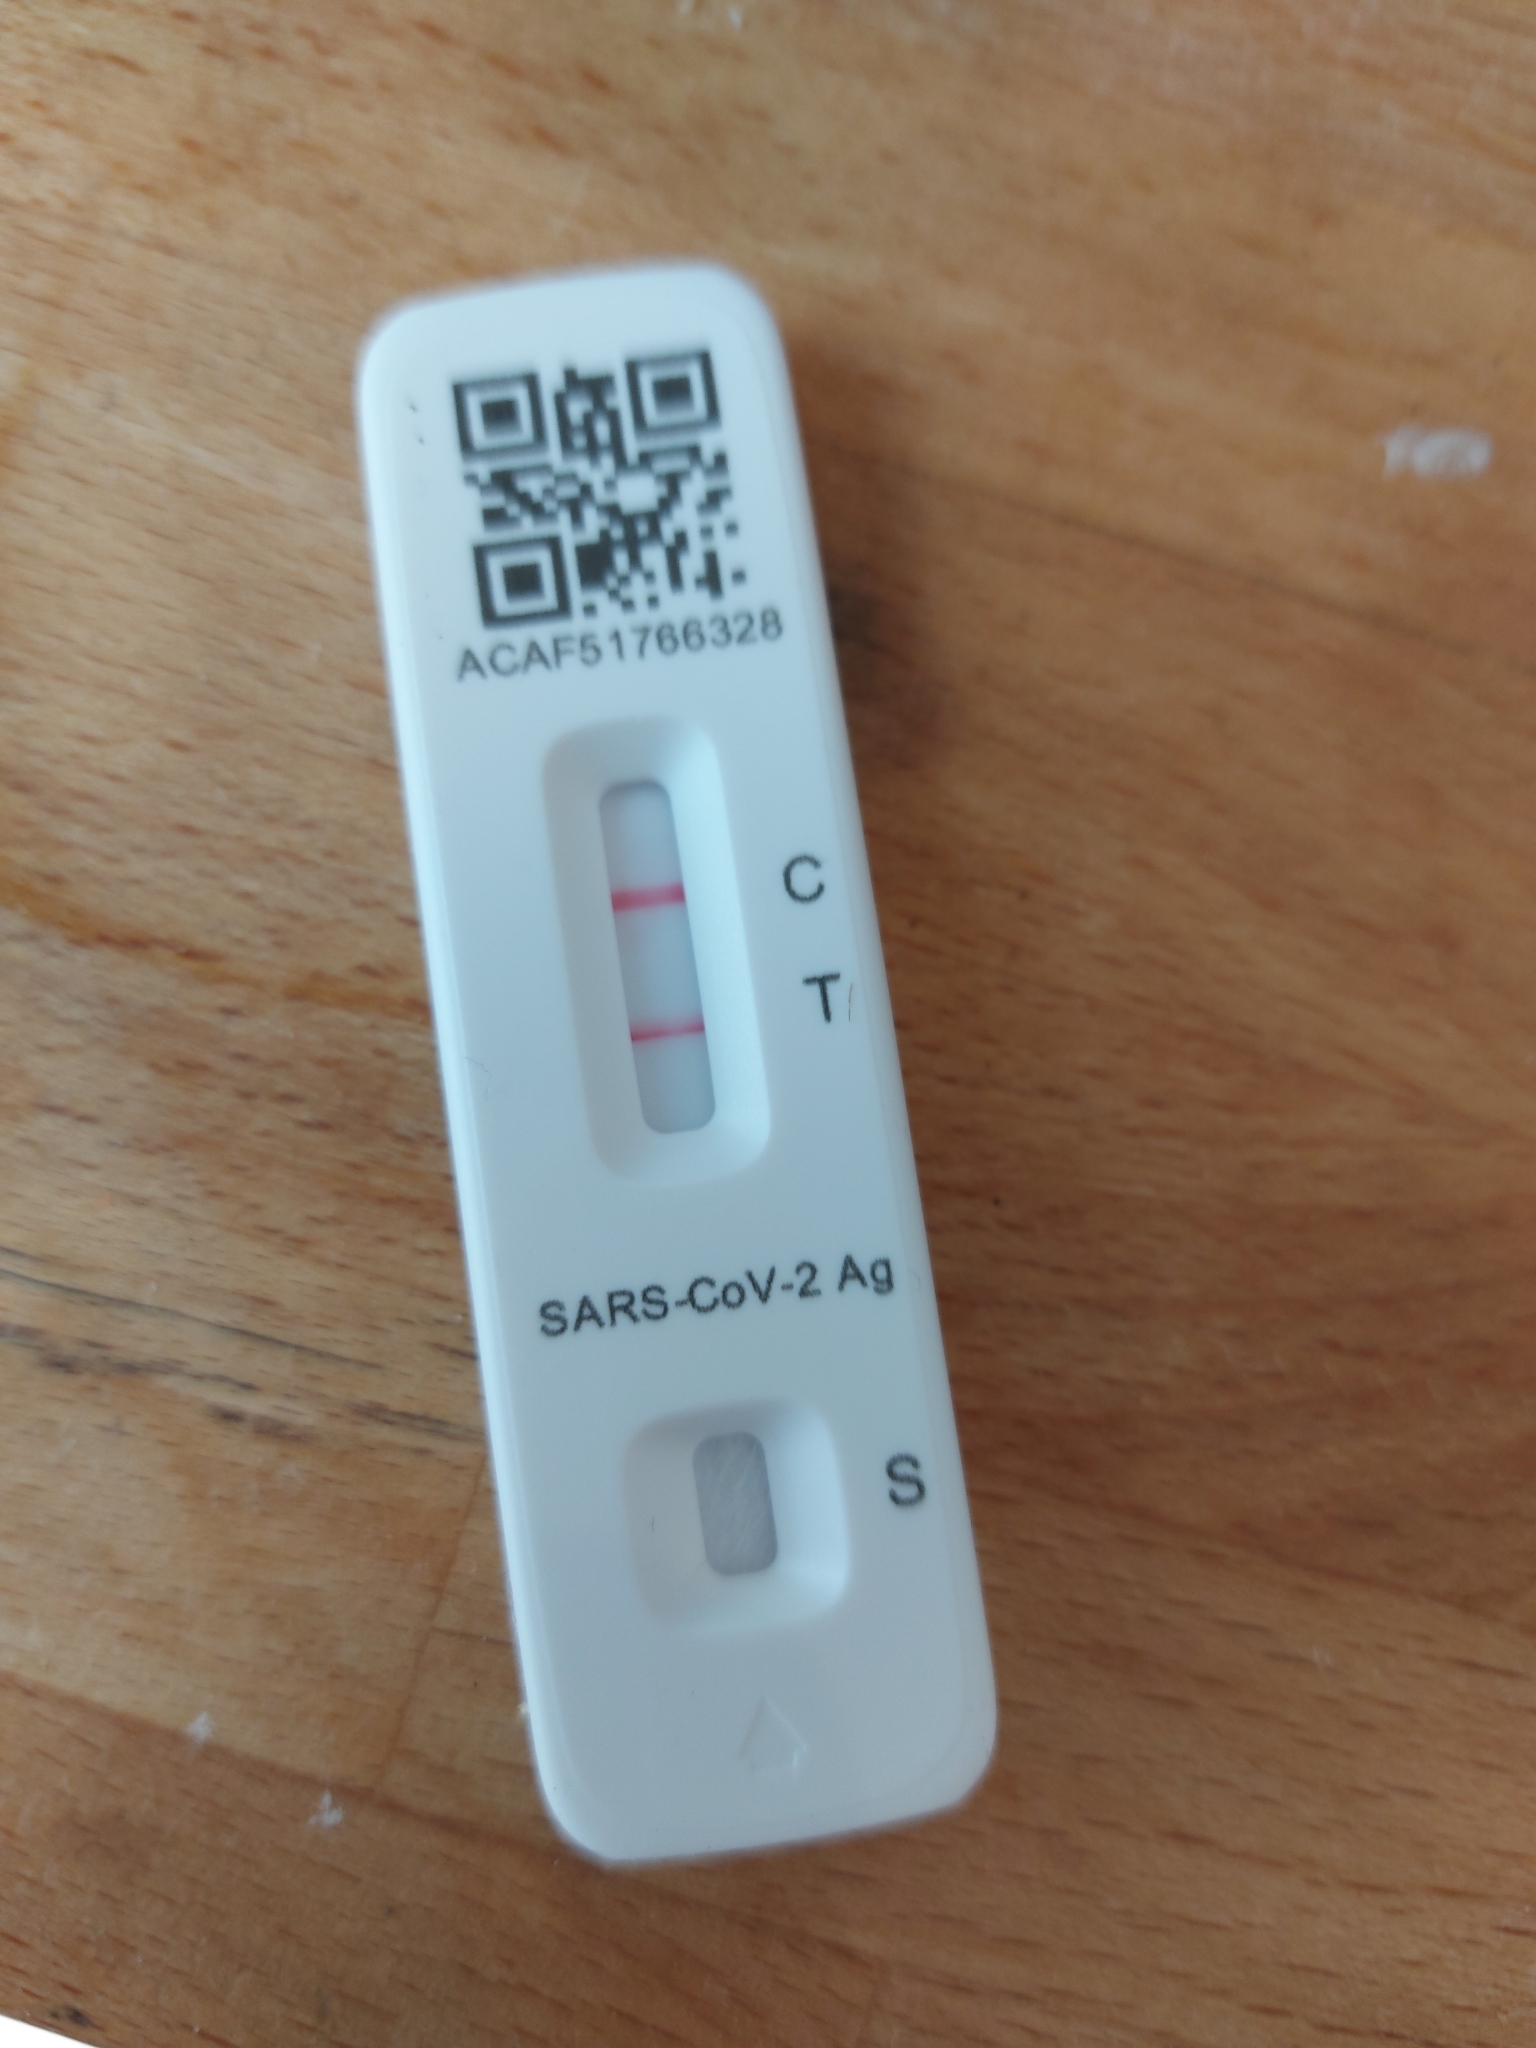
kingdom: Viruses
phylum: Pisuviricota
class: Pisoniviricetes
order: Nidovirales
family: Coronaviridae
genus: Betacoronavirus
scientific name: Betacoronavirus
